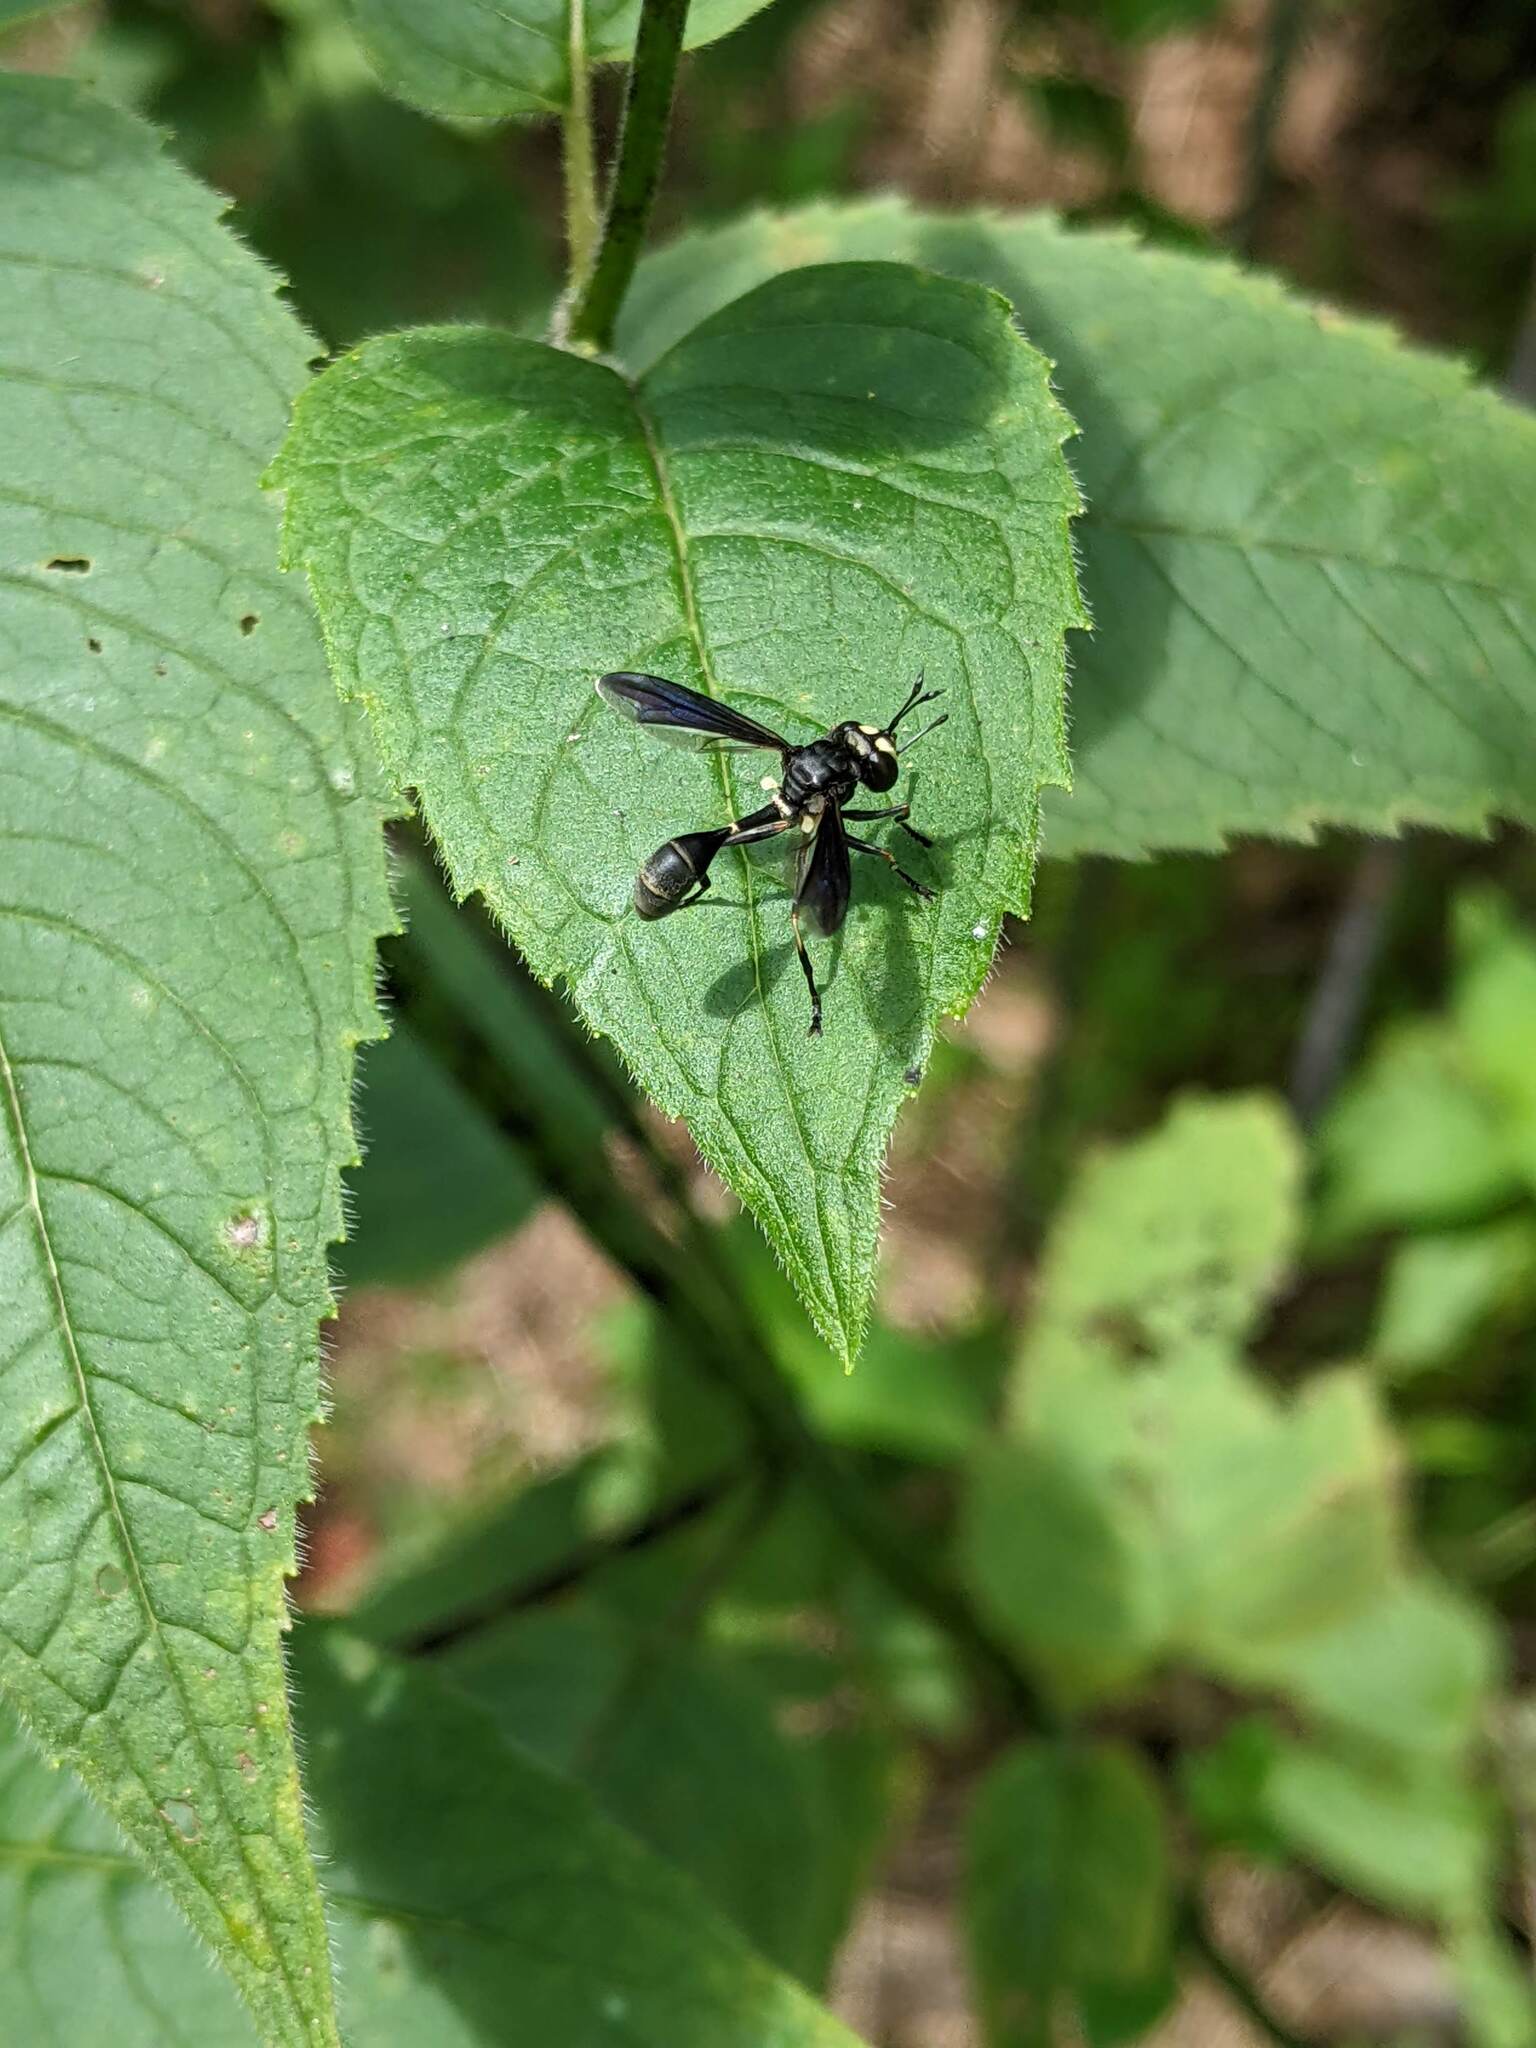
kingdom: Animalia
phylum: Arthropoda
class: Insecta
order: Diptera
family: Conopidae
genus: Physocephala
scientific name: Physocephala tibialis
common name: Common eastern physocephala
